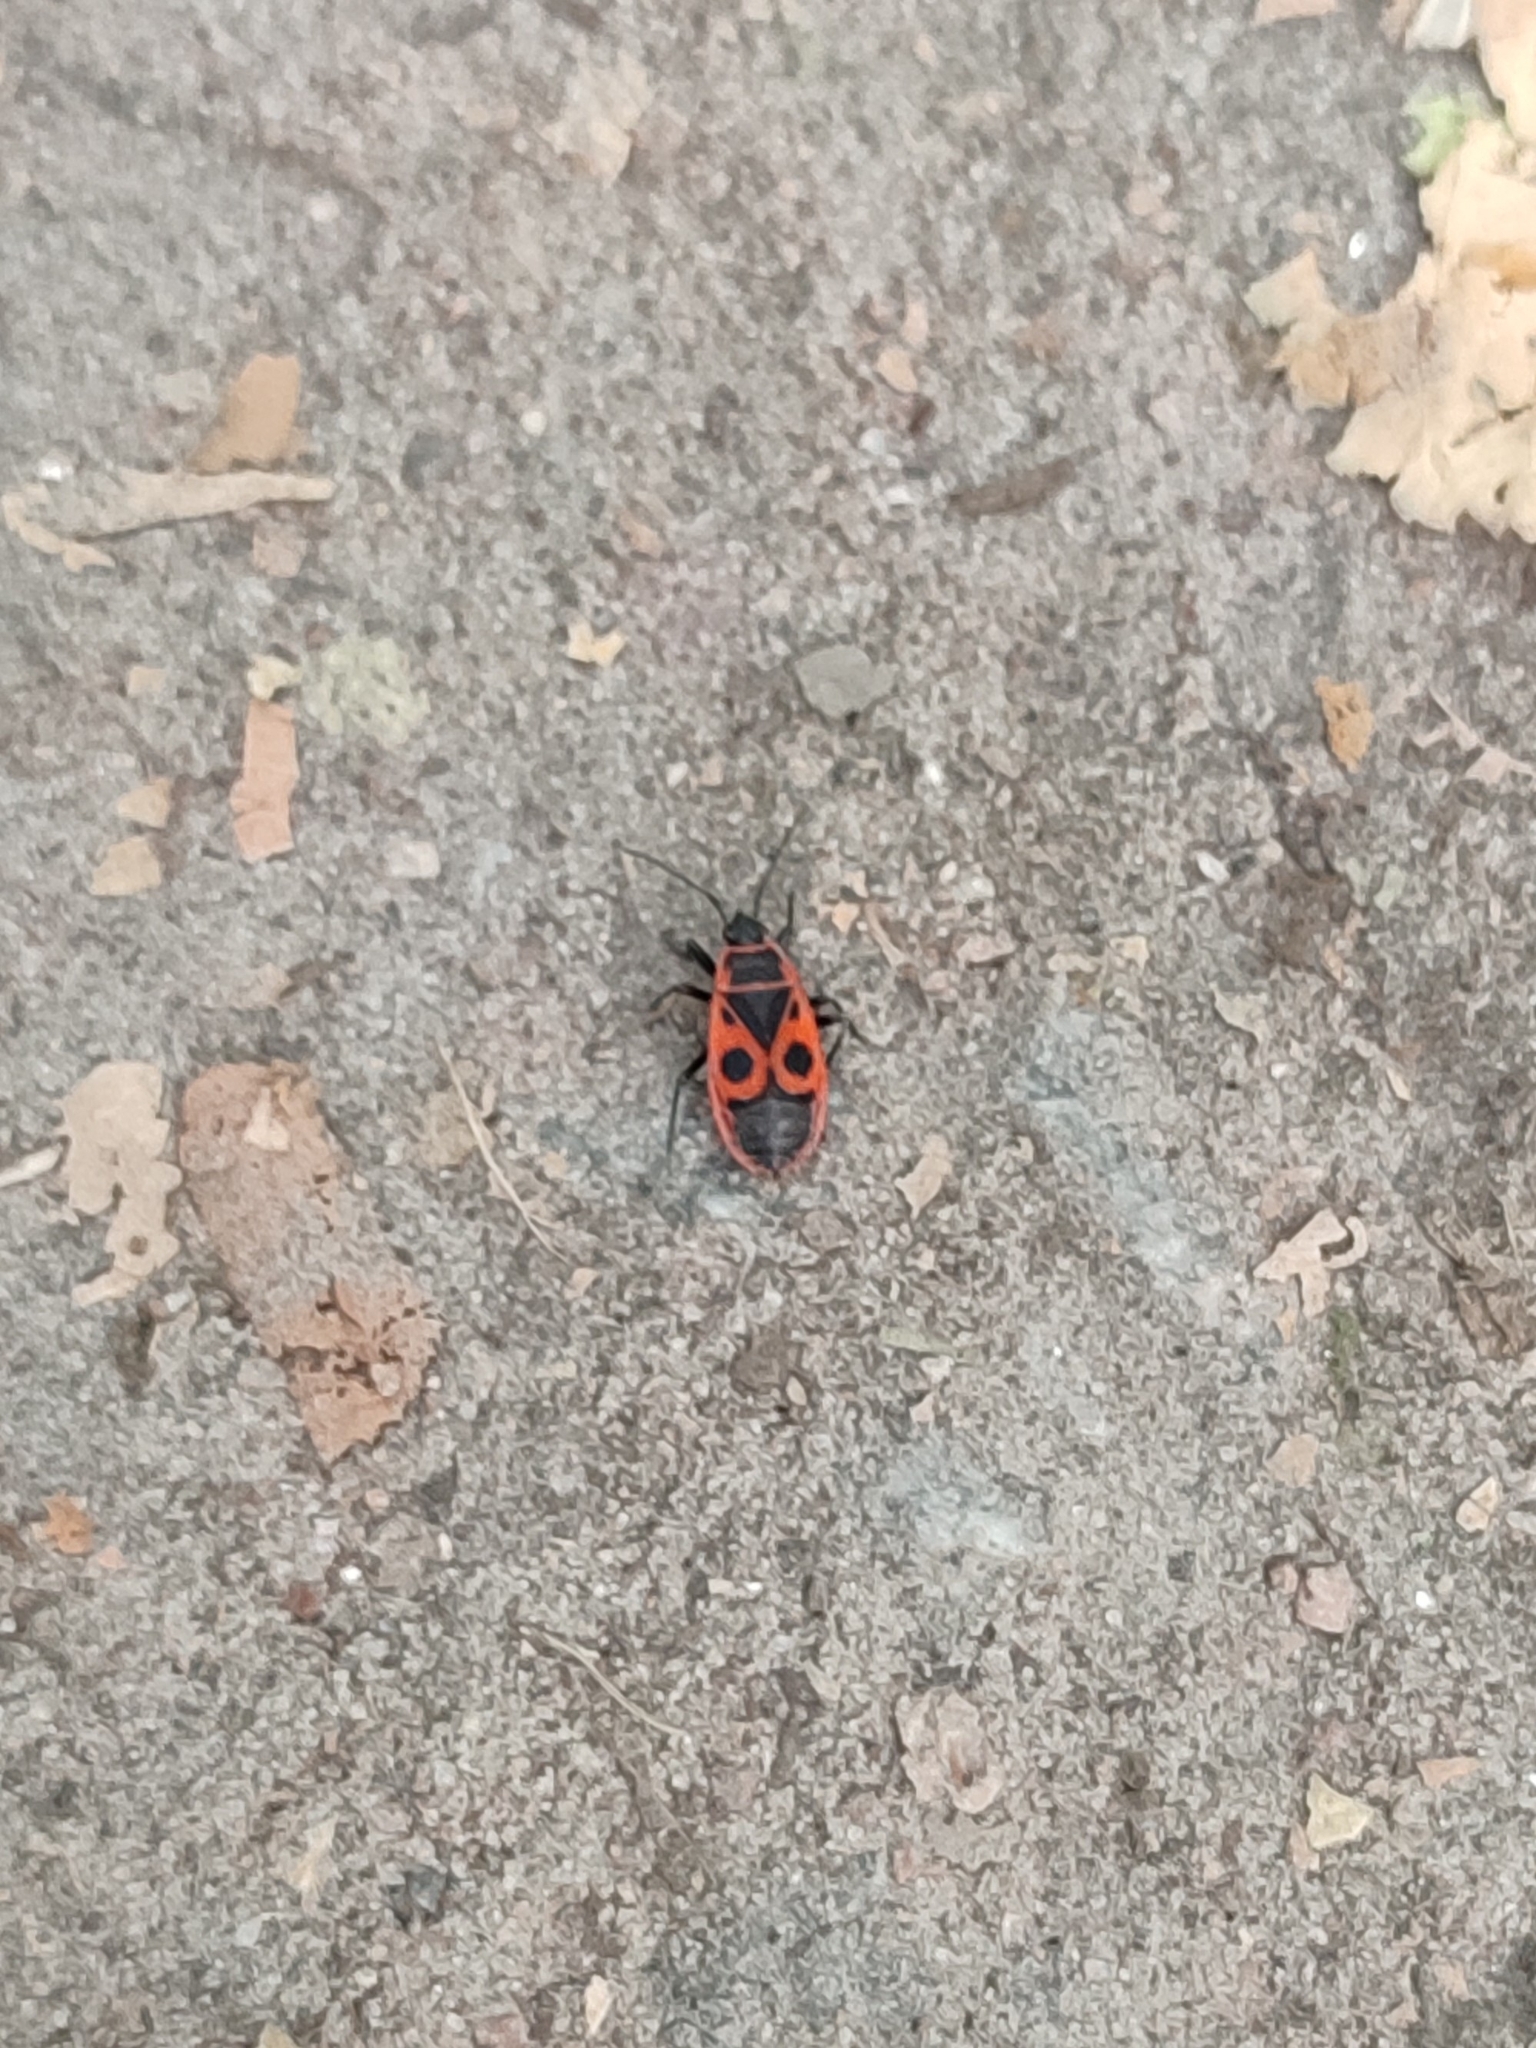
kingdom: Animalia
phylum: Arthropoda
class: Insecta
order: Hemiptera
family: Pyrrhocoridae
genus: Pyrrhocoris
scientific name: Pyrrhocoris apterus
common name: Firebug
